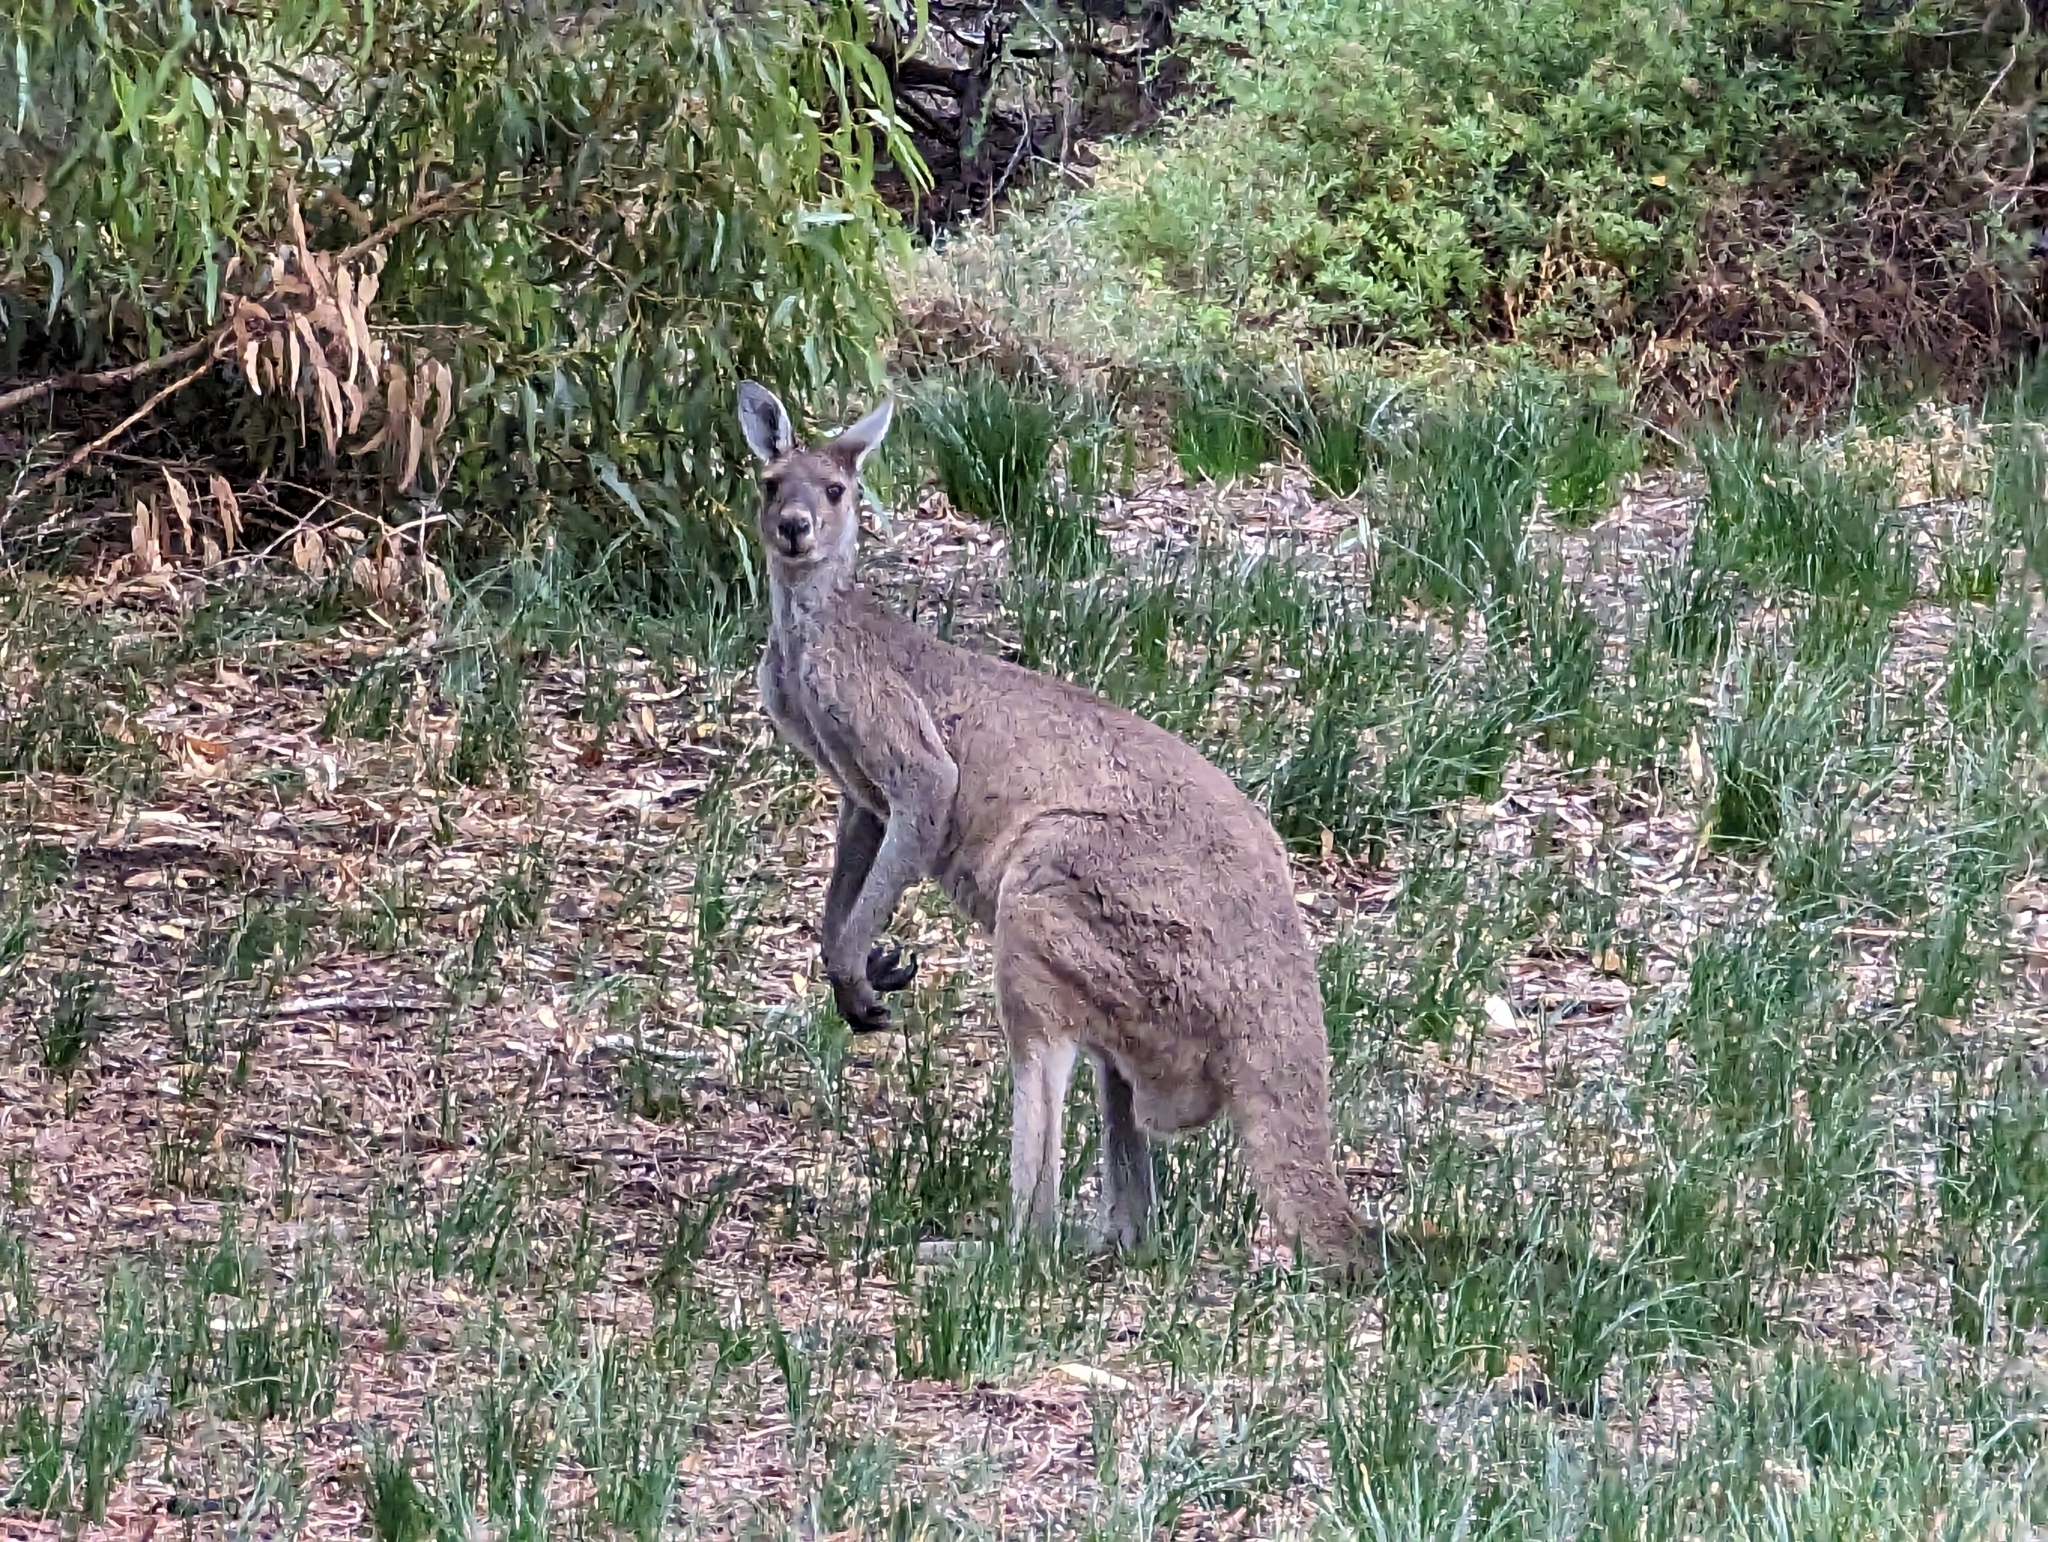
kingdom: Animalia
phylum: Chordata
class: Mammalia
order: Diprotodontia
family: Macropodidae
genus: Macropus
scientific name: Macropus fuliginosus
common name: Western grey kangaroo
